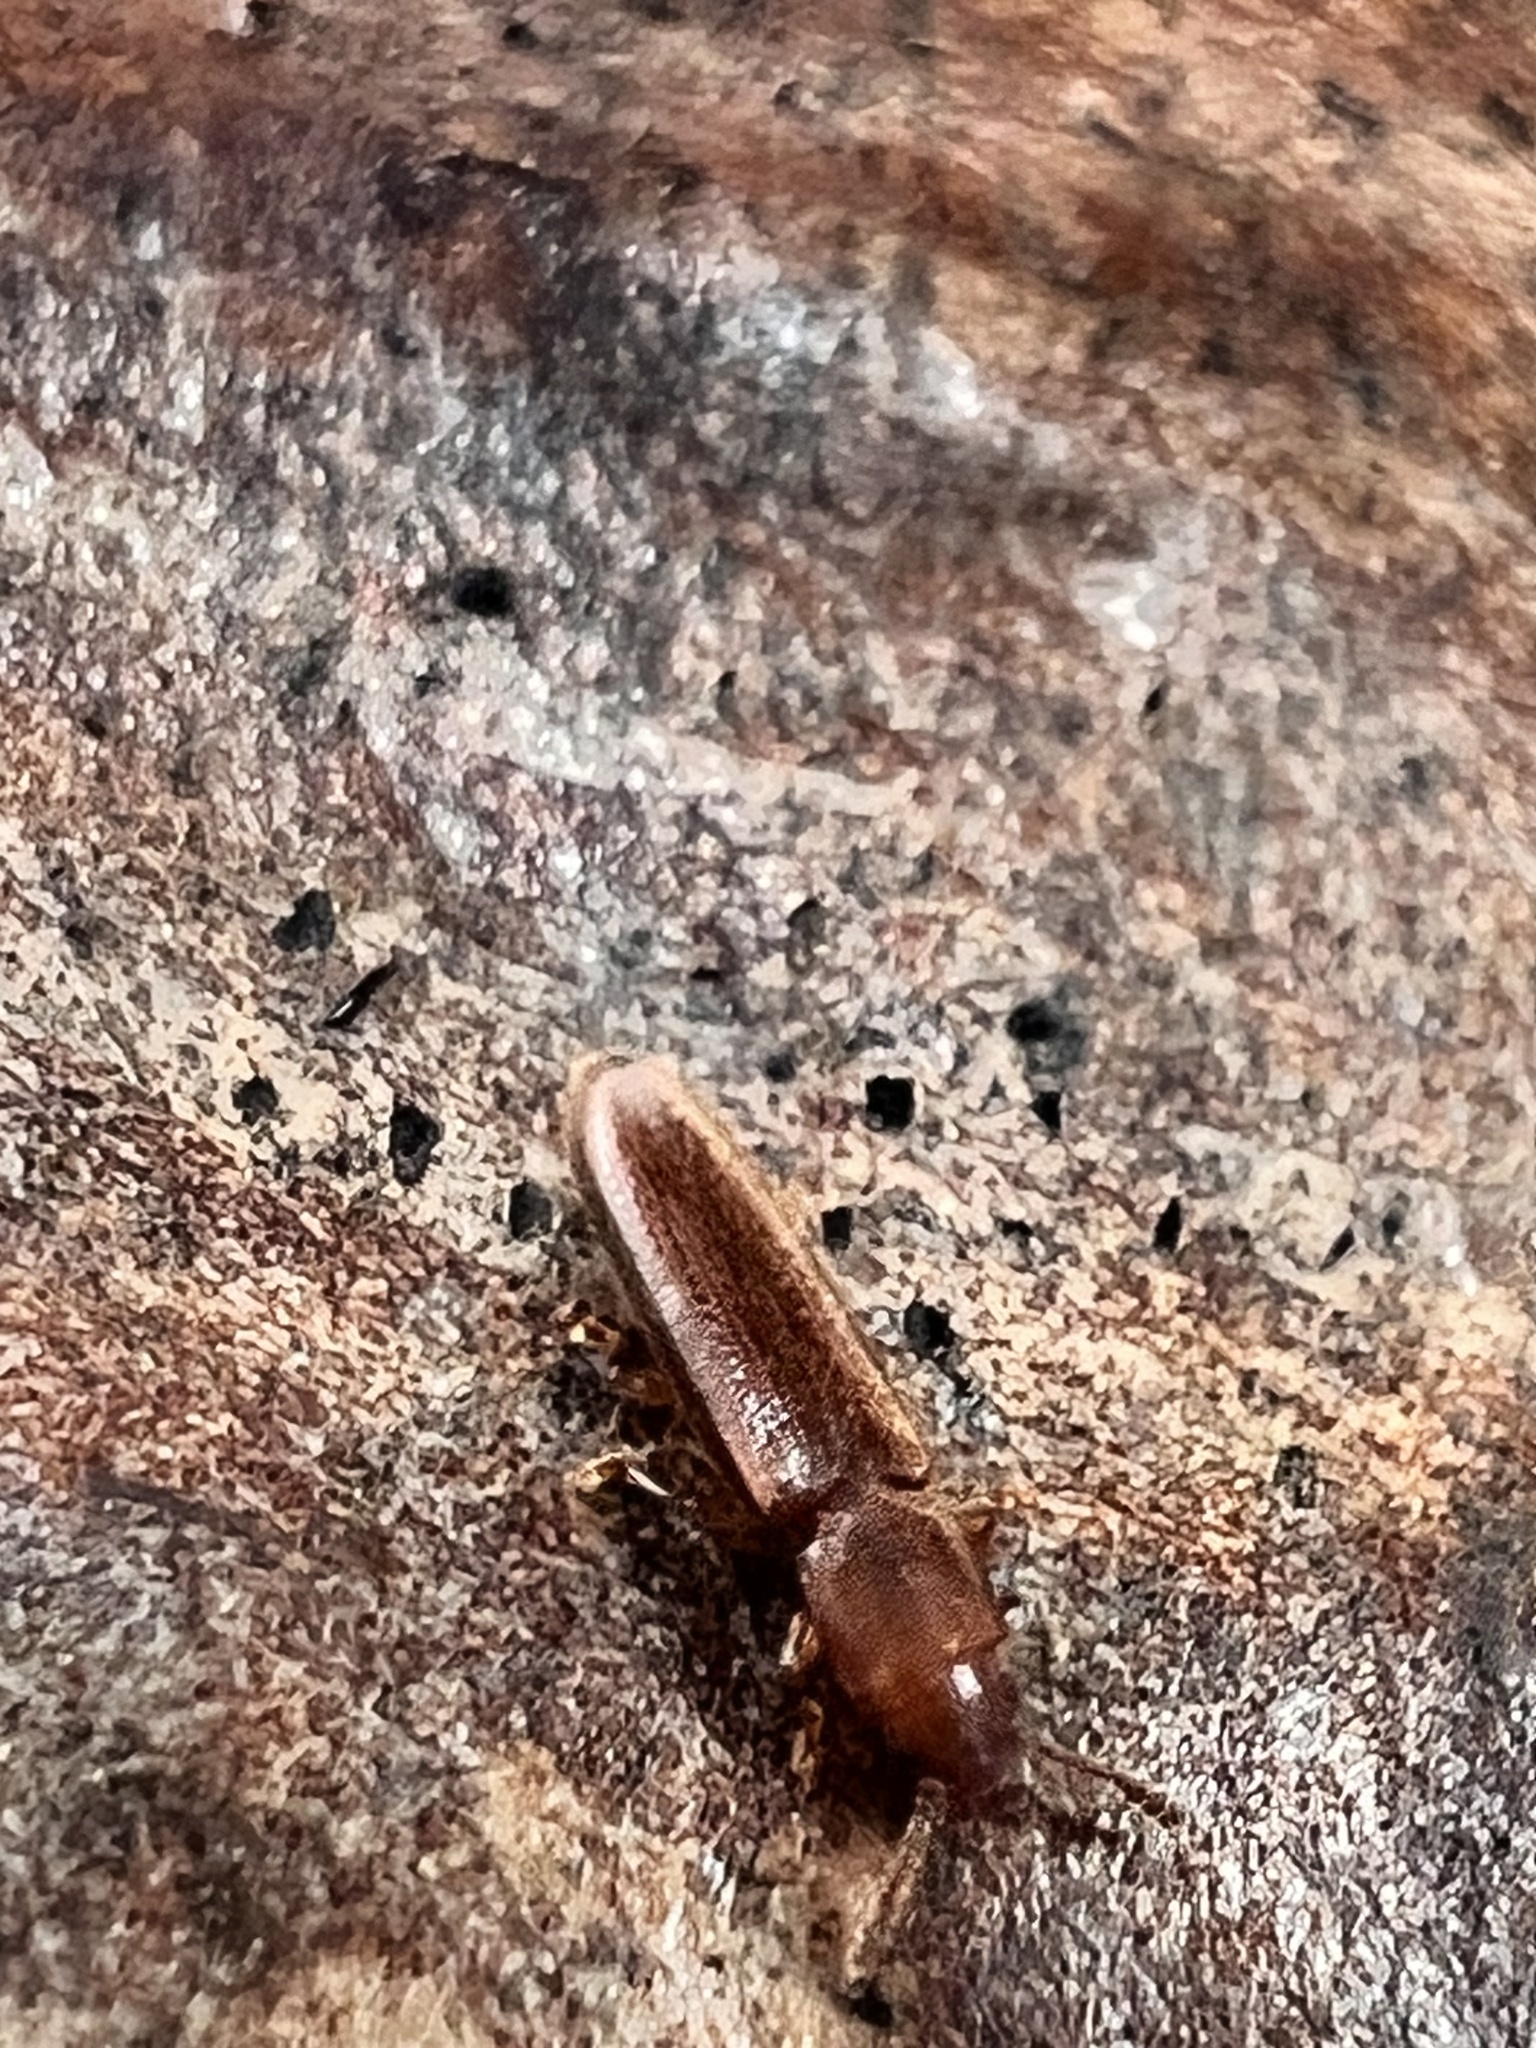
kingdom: Animalia
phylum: Arthropoda
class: Insecta
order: Coleoptera
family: Erotylidae
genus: Hapalips
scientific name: Hapalips prolixus
